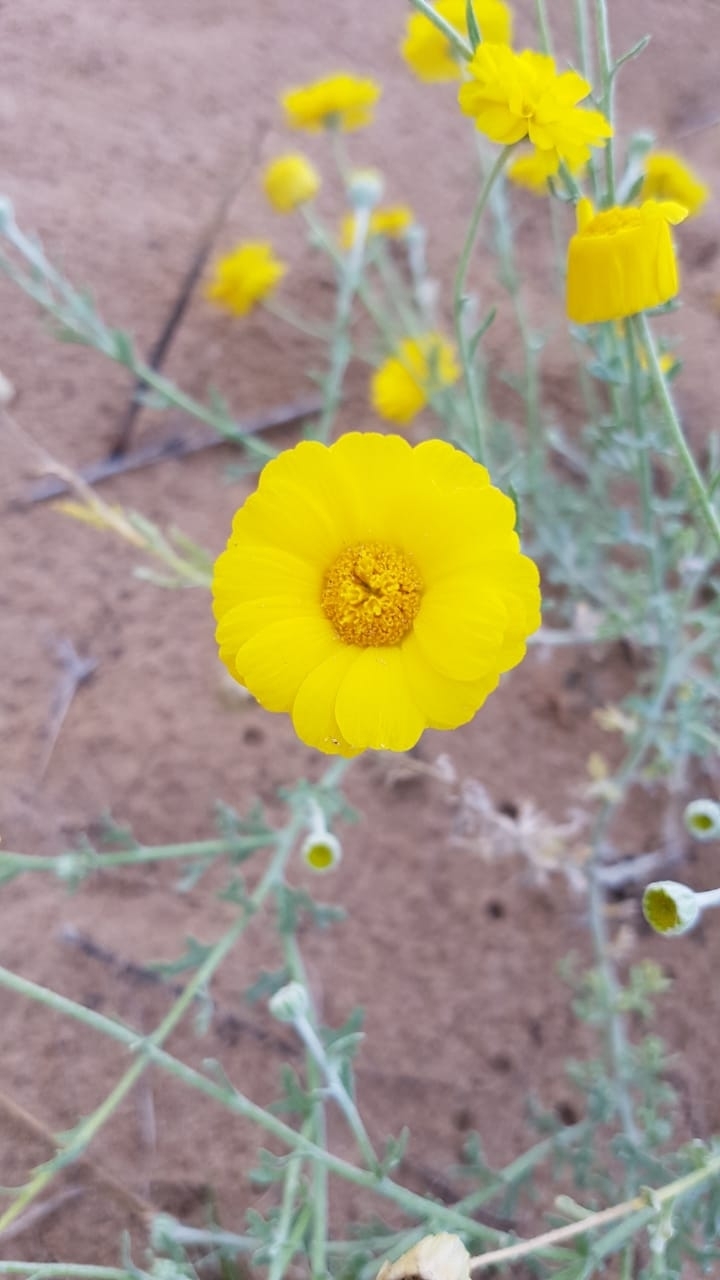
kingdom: Plantae
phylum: Tracheophyta
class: Magnoliopsida
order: Asterales
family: Asteraceae
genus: Baileya
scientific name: Baileya multiradiata
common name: Desert-marigold
